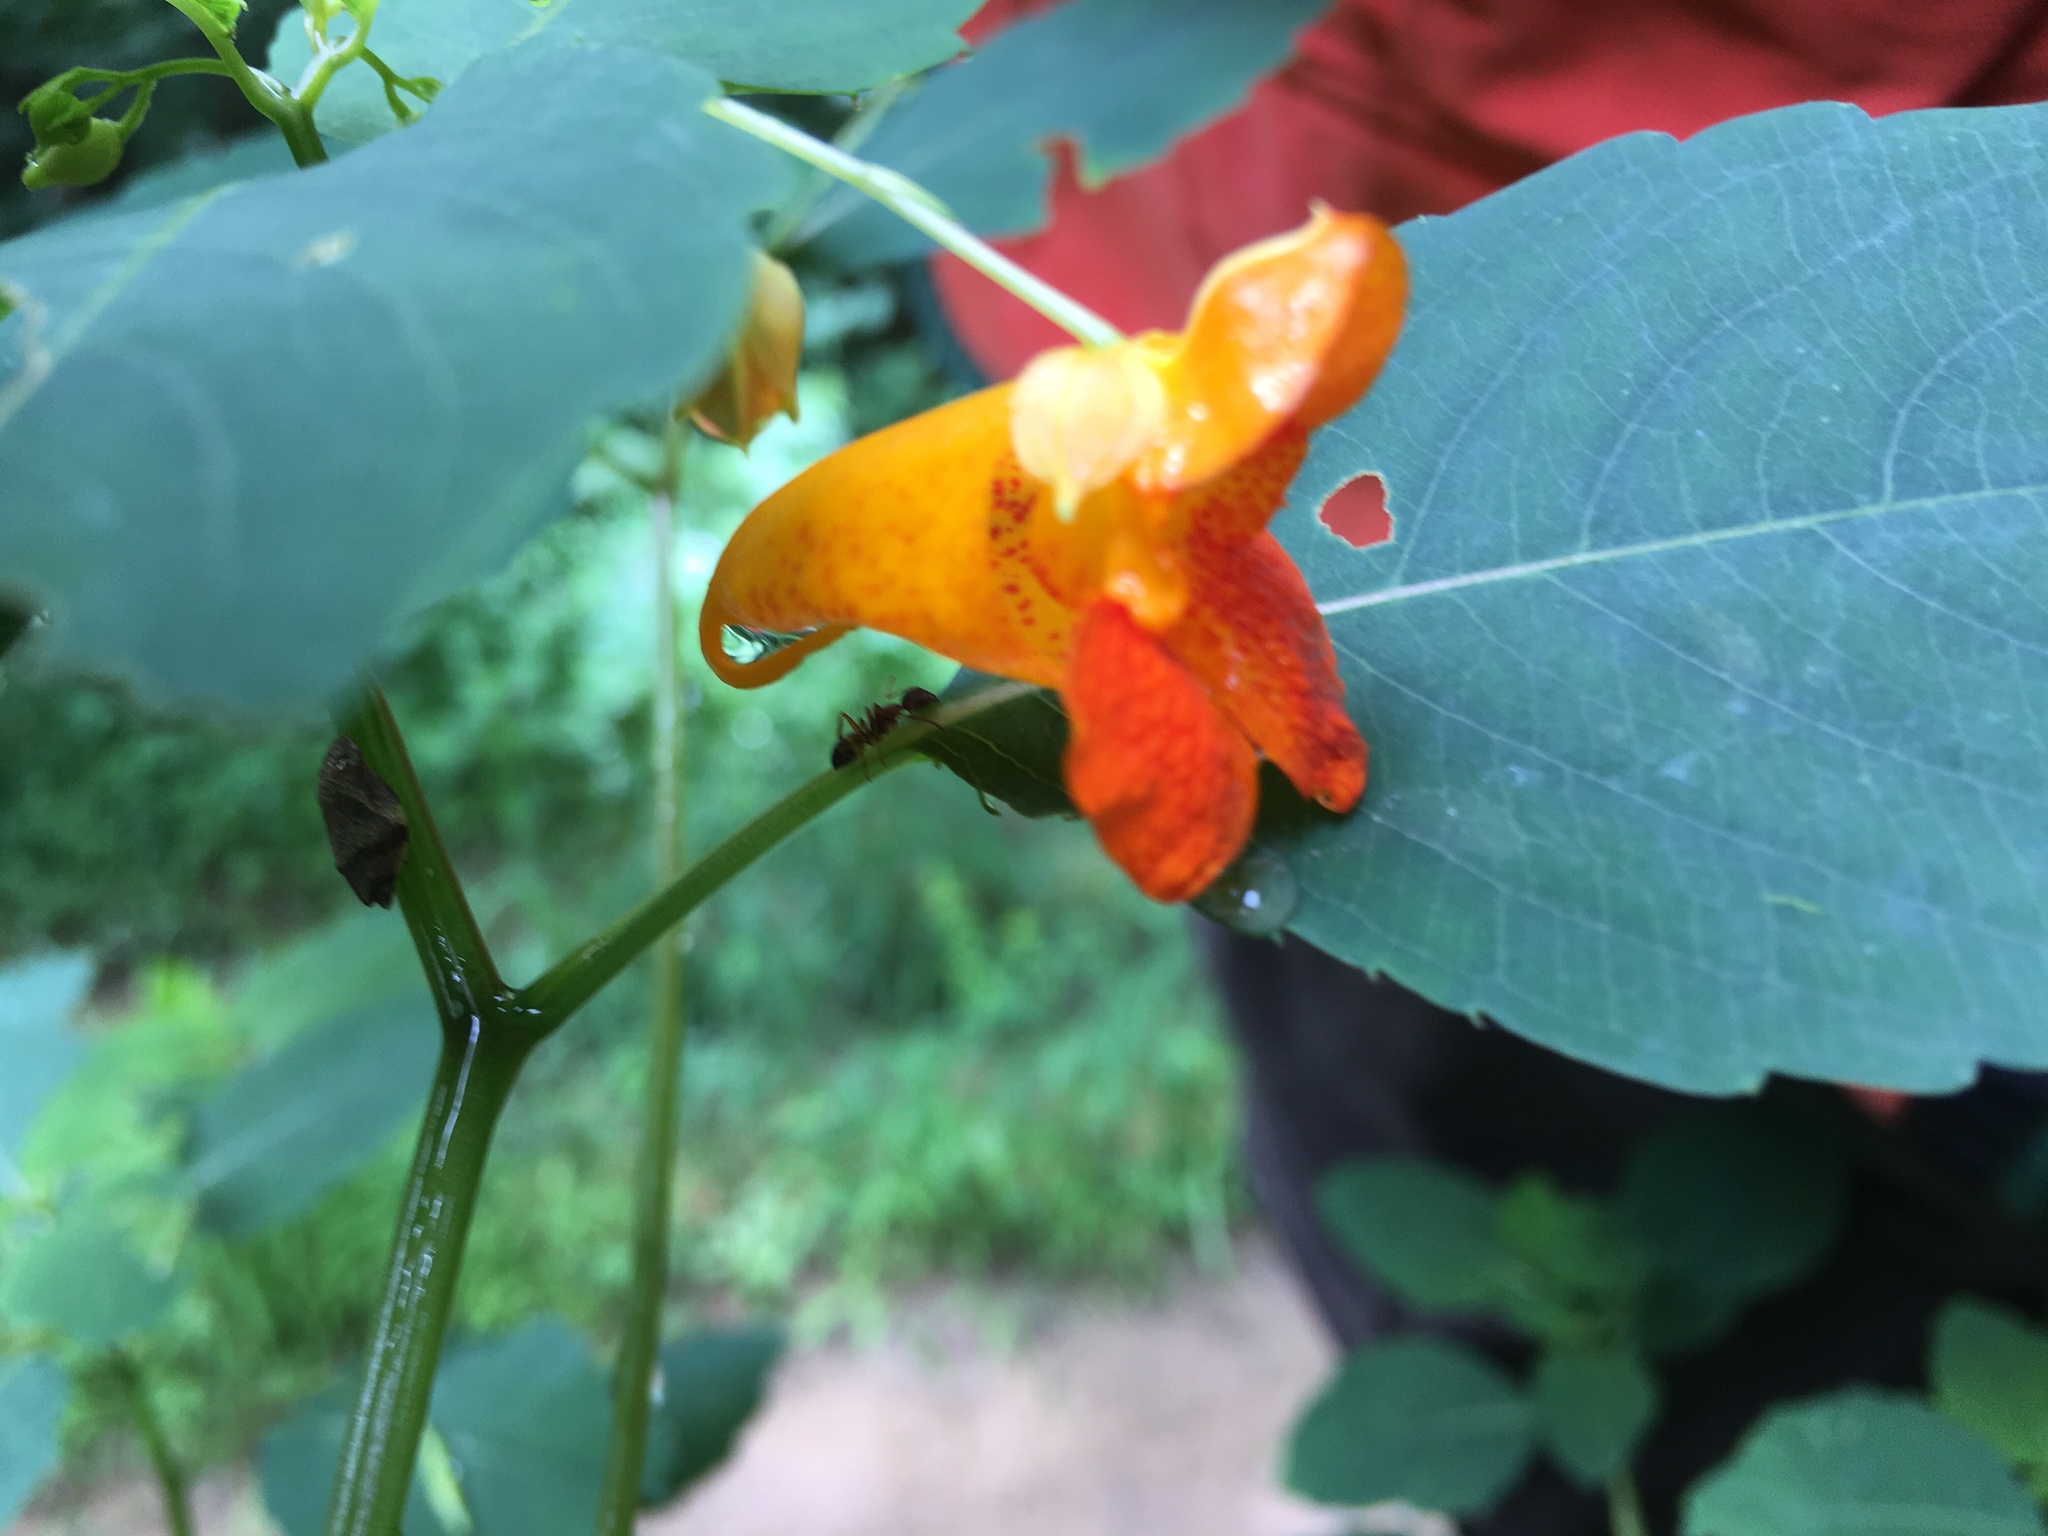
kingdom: Plantae
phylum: Tracheophyta
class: Magnoliopsida
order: Ericales
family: Balsaminaceae
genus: Impatiens
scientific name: Impatiens capensis
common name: Orange balsam
